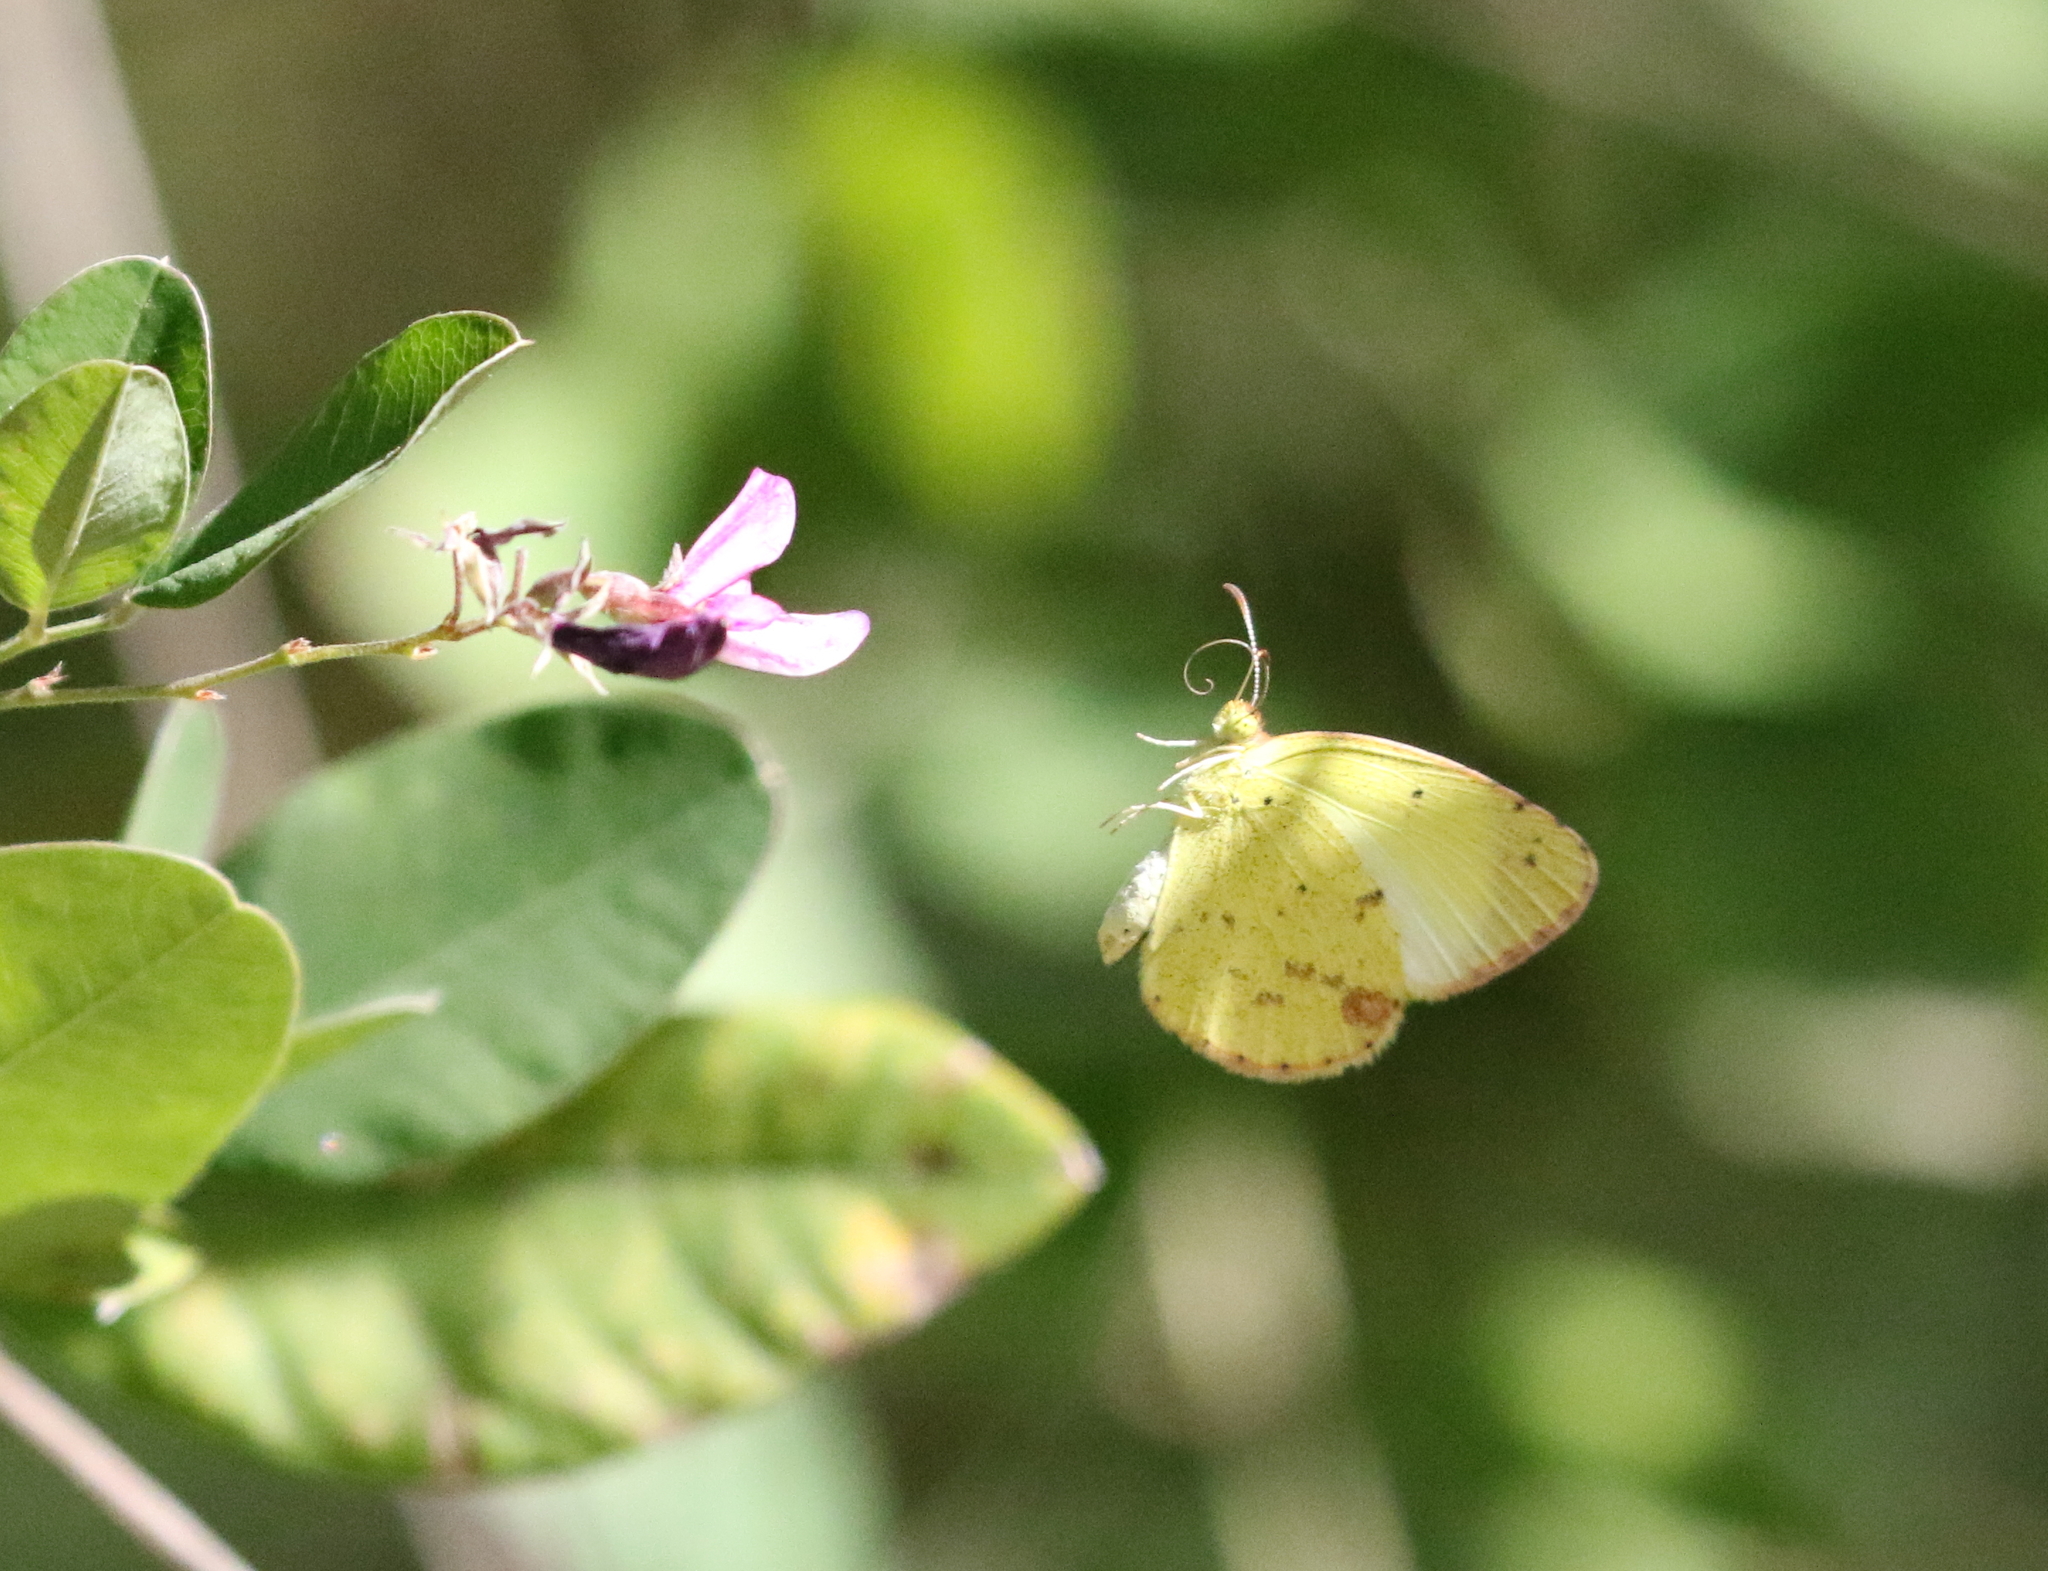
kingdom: Animalia
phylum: Arthropoda
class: Insecta
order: Lepidoptera
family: Pieridae
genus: Pyrisitia
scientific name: Pyrisitia lisa
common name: Little yellow
